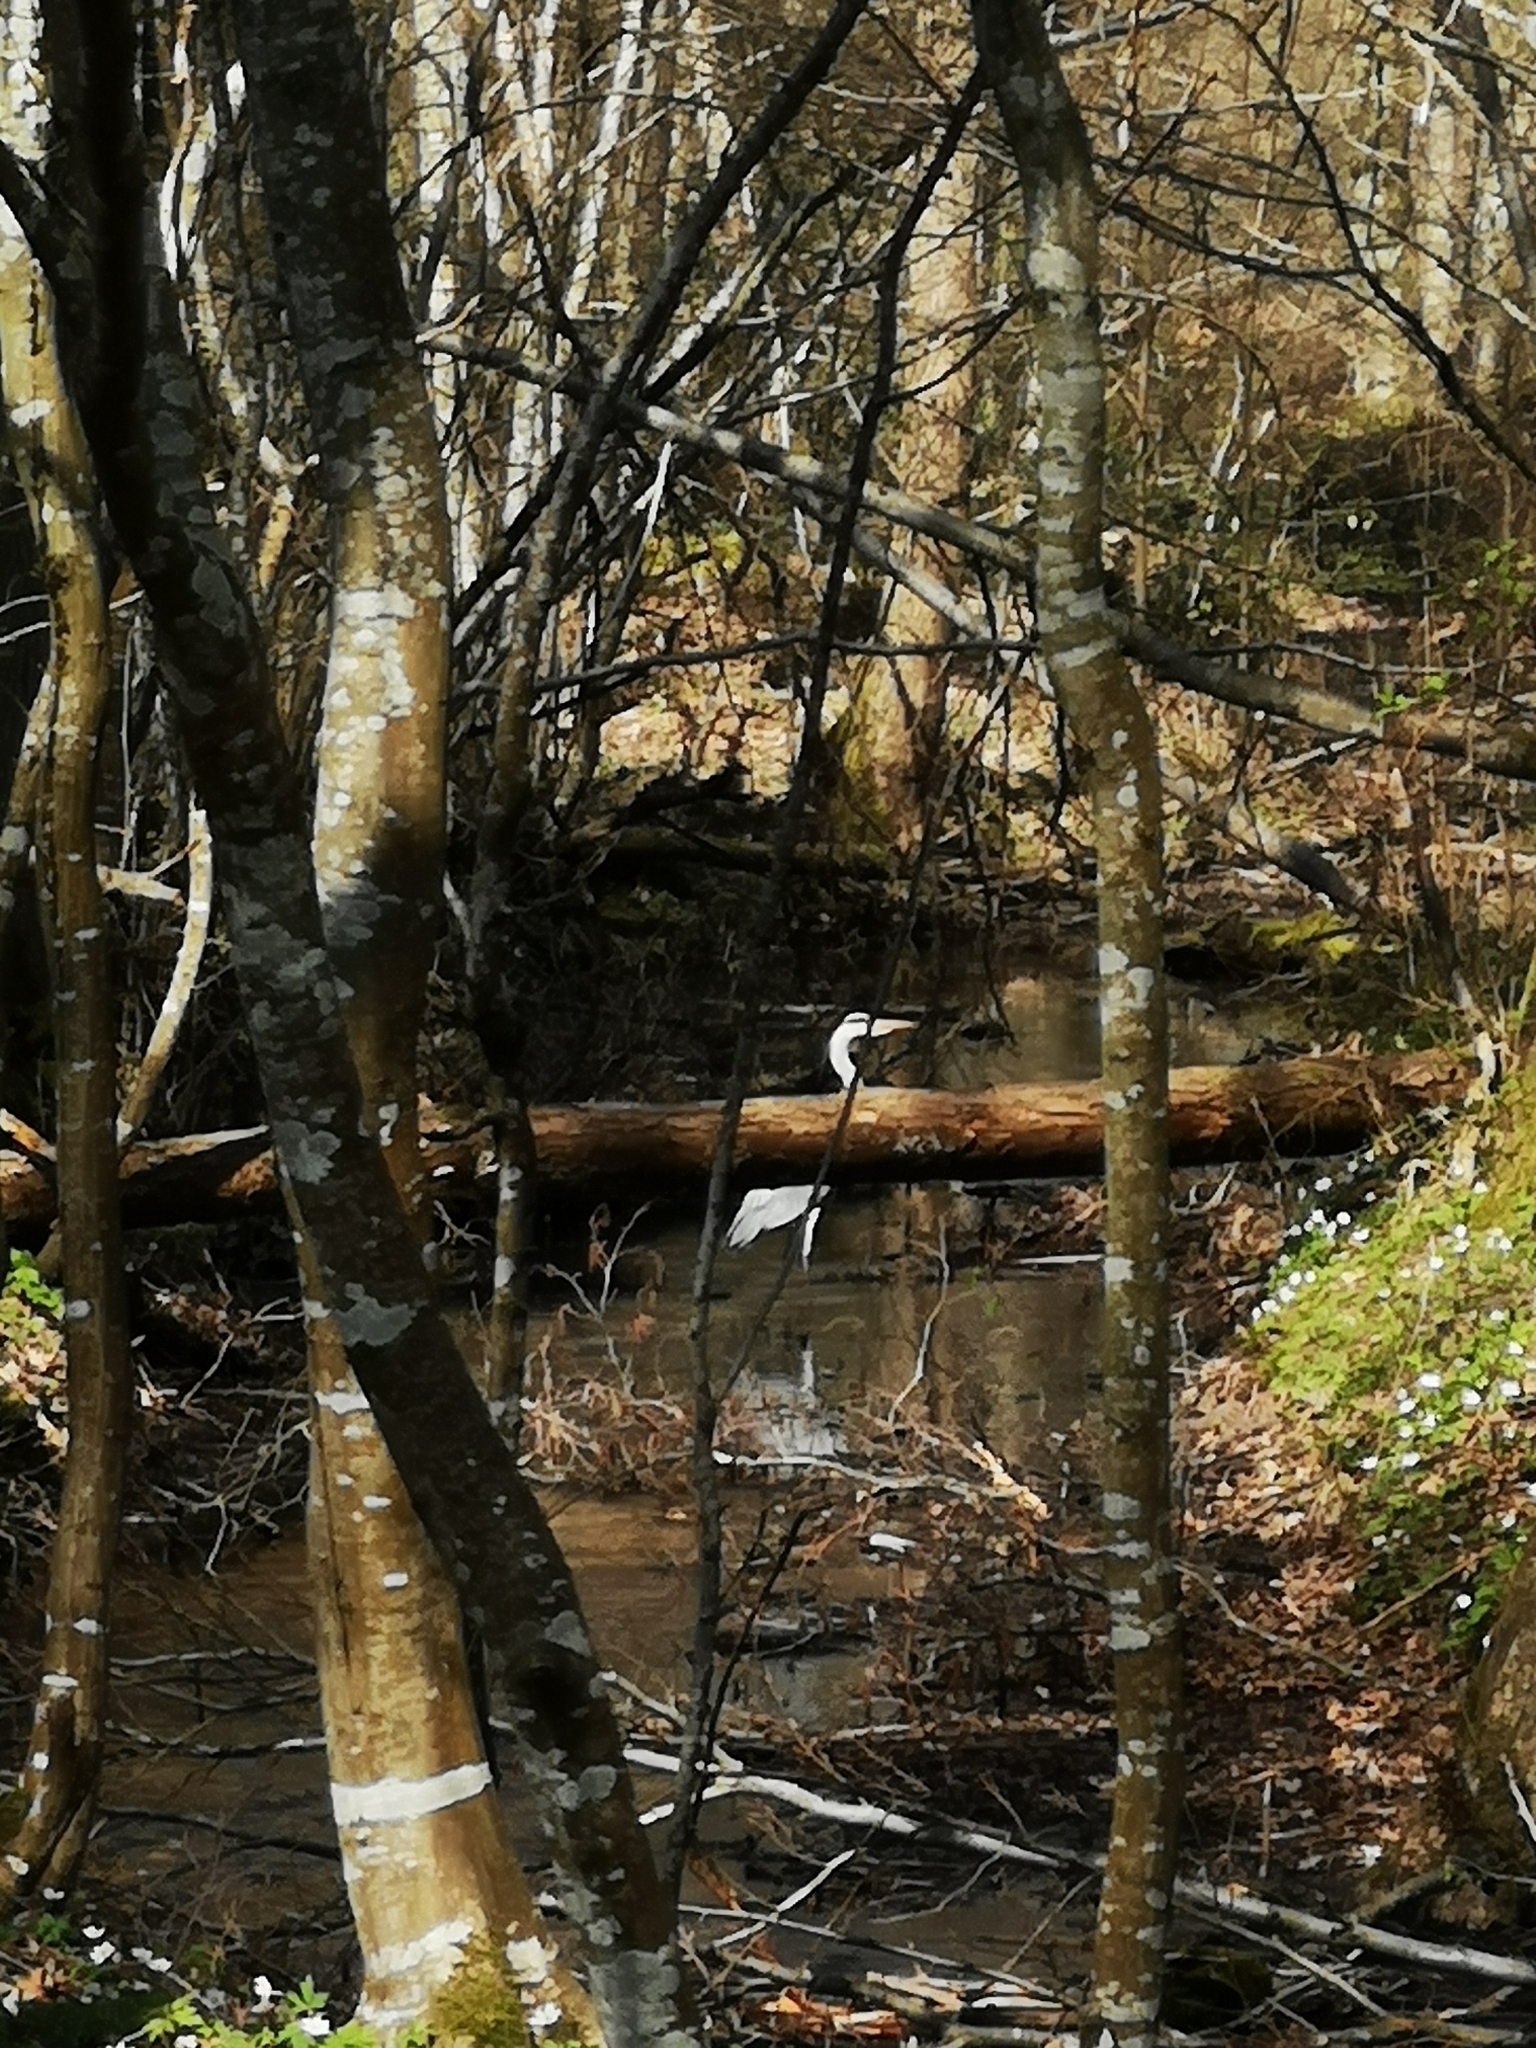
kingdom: Animalia
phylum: Chordata
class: Aves
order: Pelecaniformes
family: Ardeidae
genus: Ardea
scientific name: Ardea cinerea
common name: Grey heron
